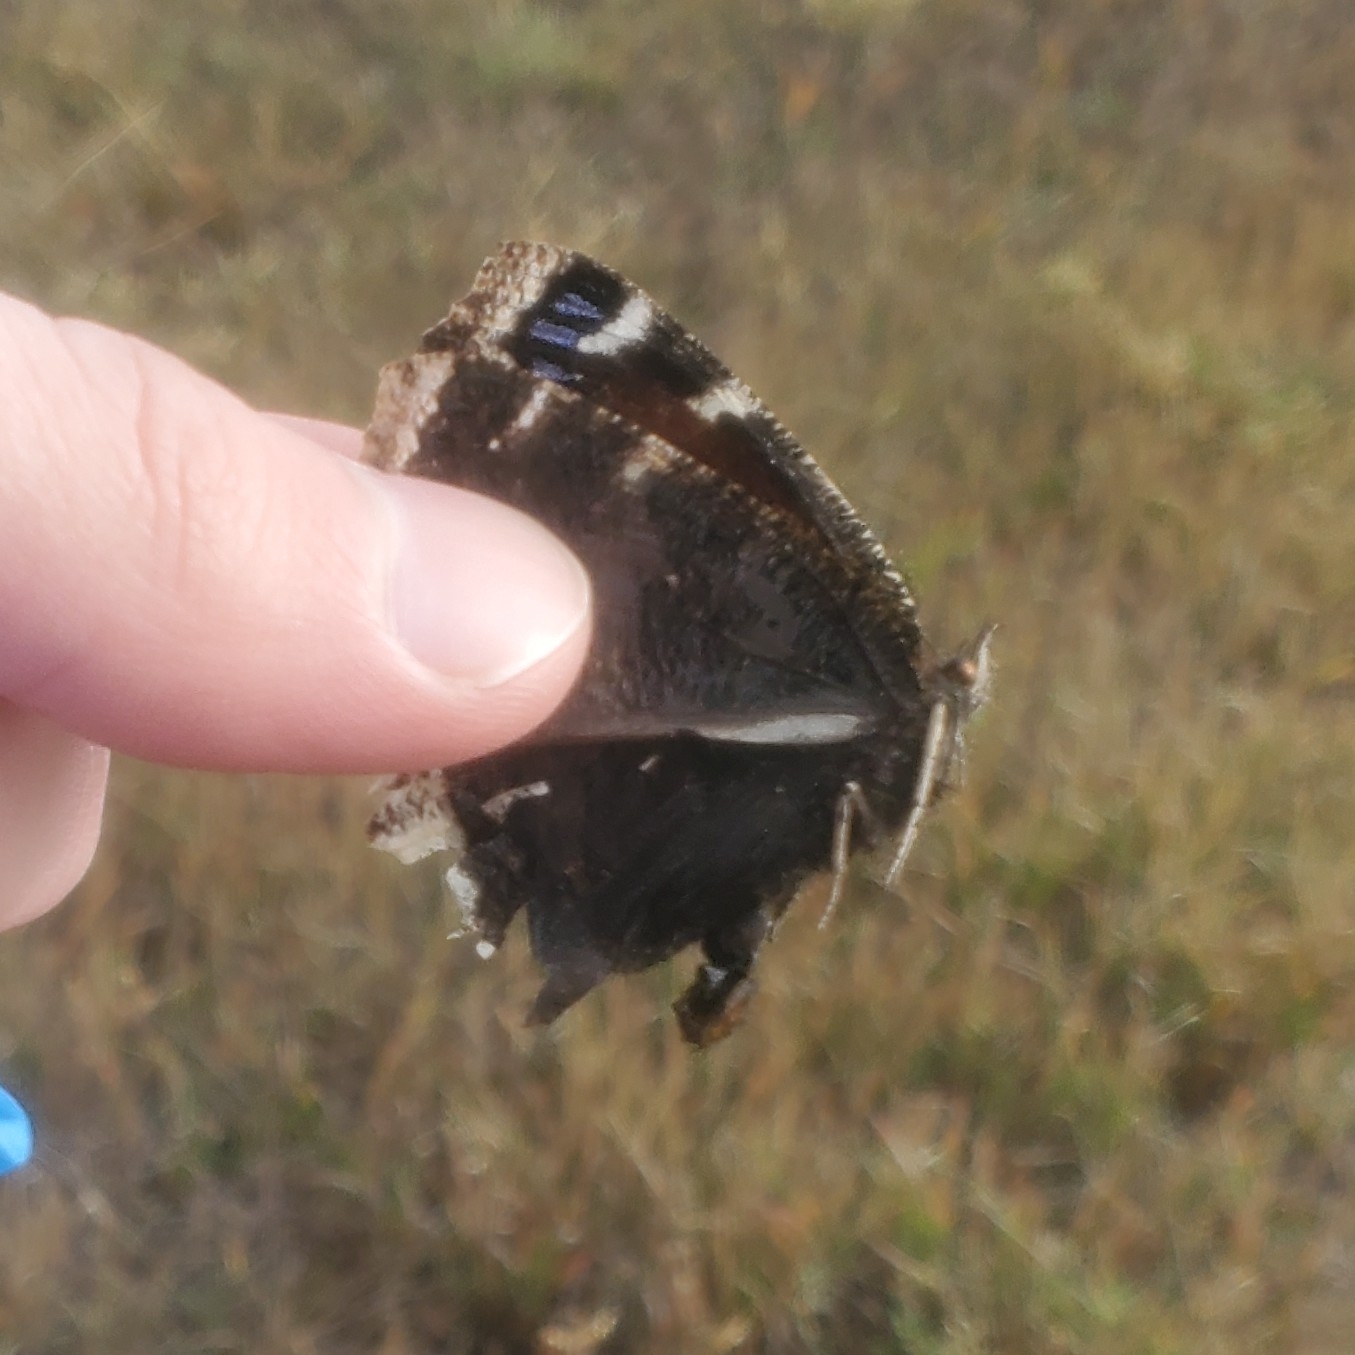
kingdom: Animalia
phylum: Arthropoda
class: Insecta
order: Lepidoptera
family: Nymphalidae
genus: Nymphalis
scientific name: Nymphalis antiopa
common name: Camberwell beauty
